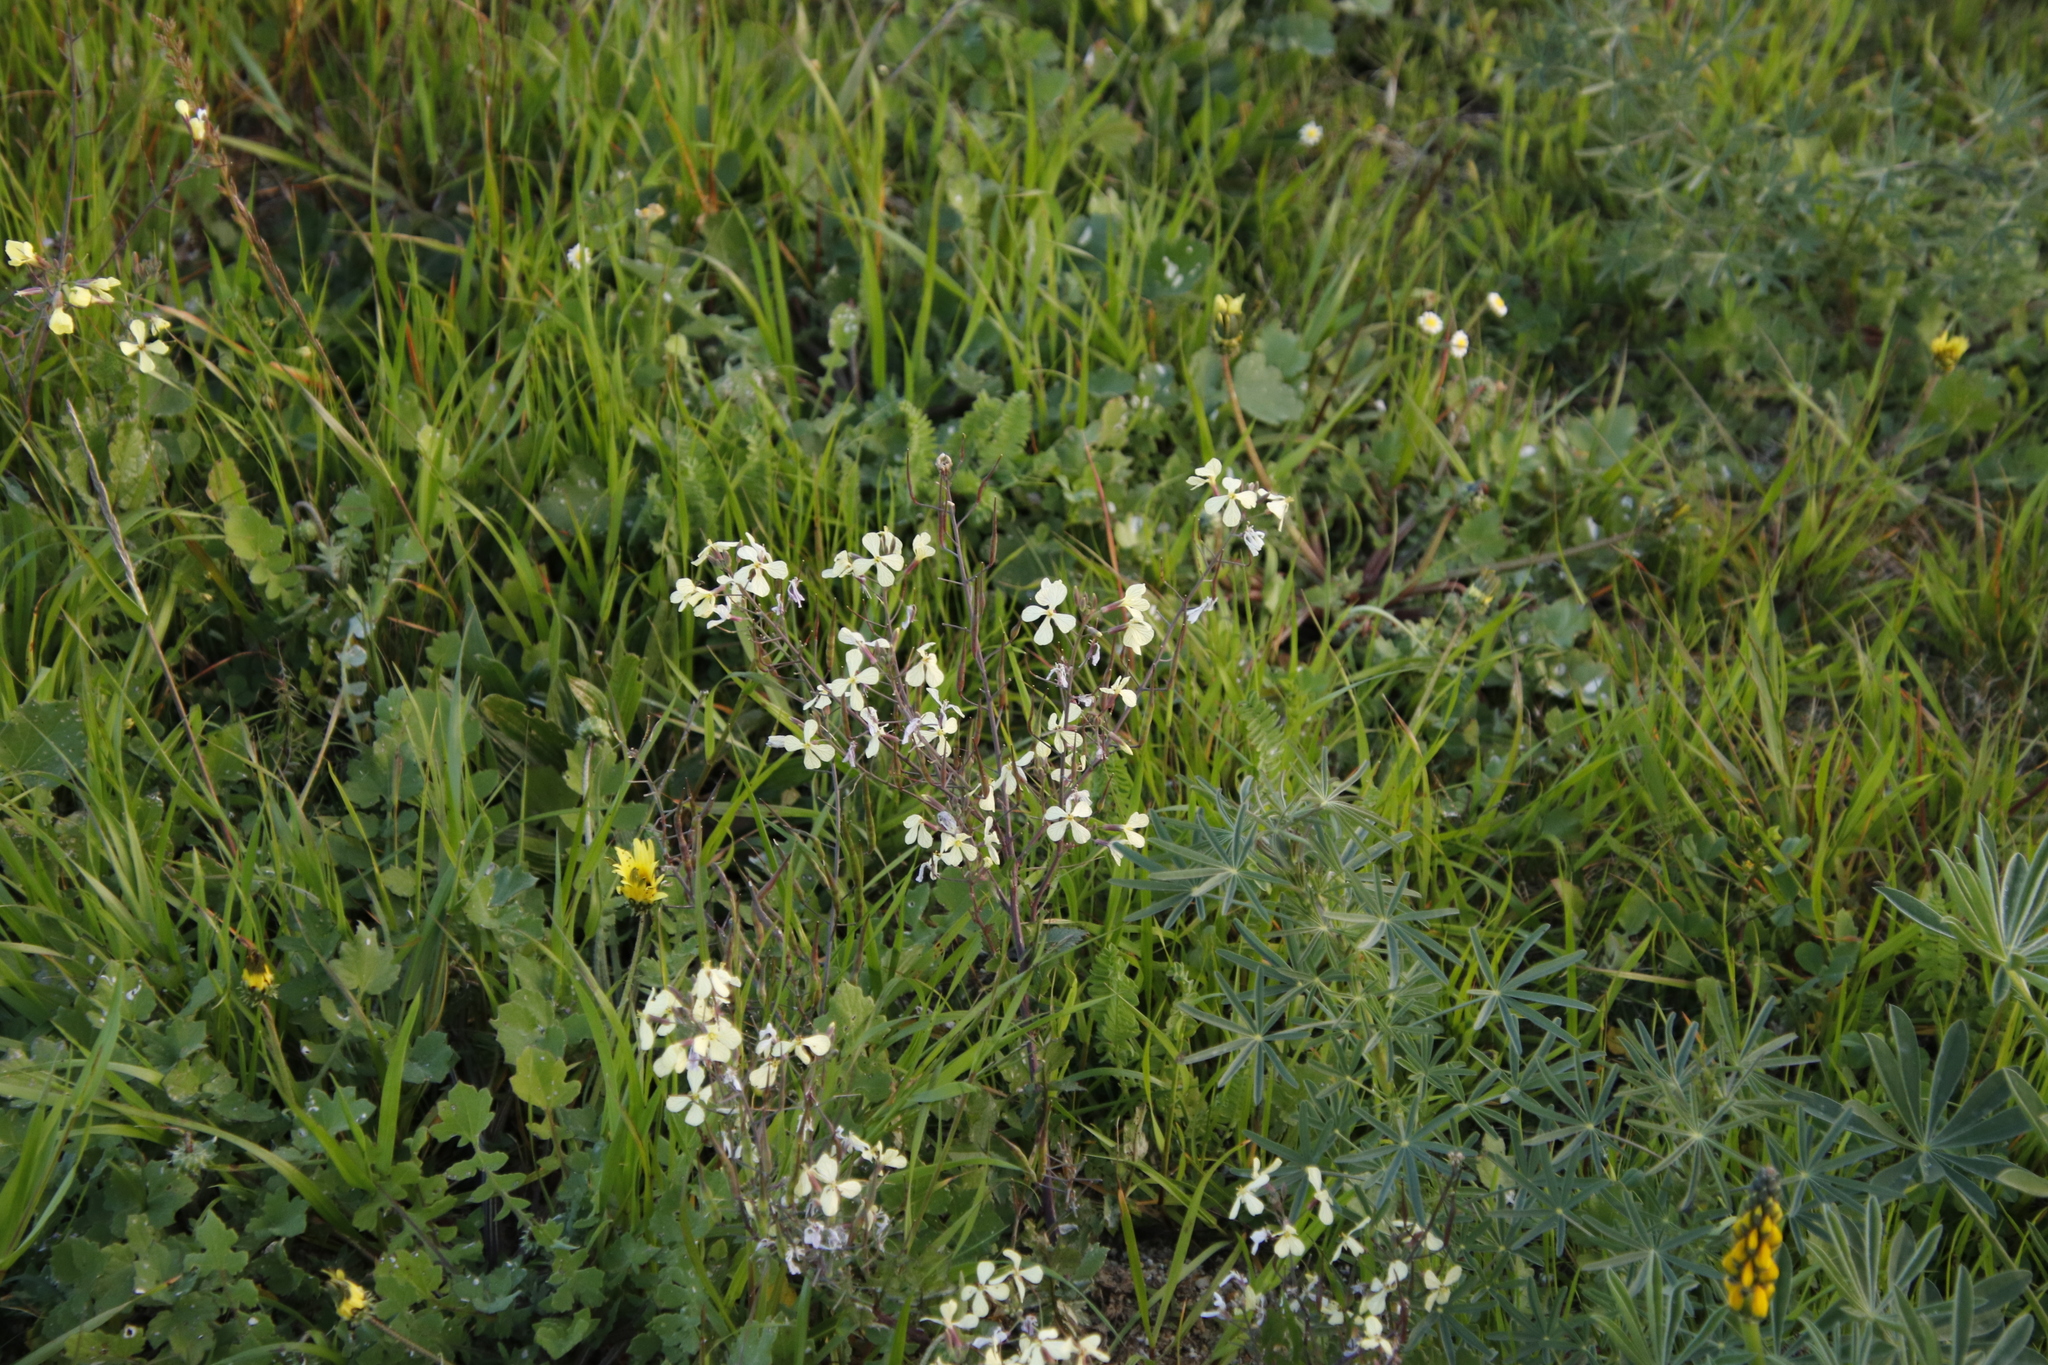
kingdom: Plantae
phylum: Tracheophyta
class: Magnoliopsida
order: Brassicales
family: Brassicaceae
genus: Raphanus
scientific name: Raphanus raphanistrum
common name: Wild radish
